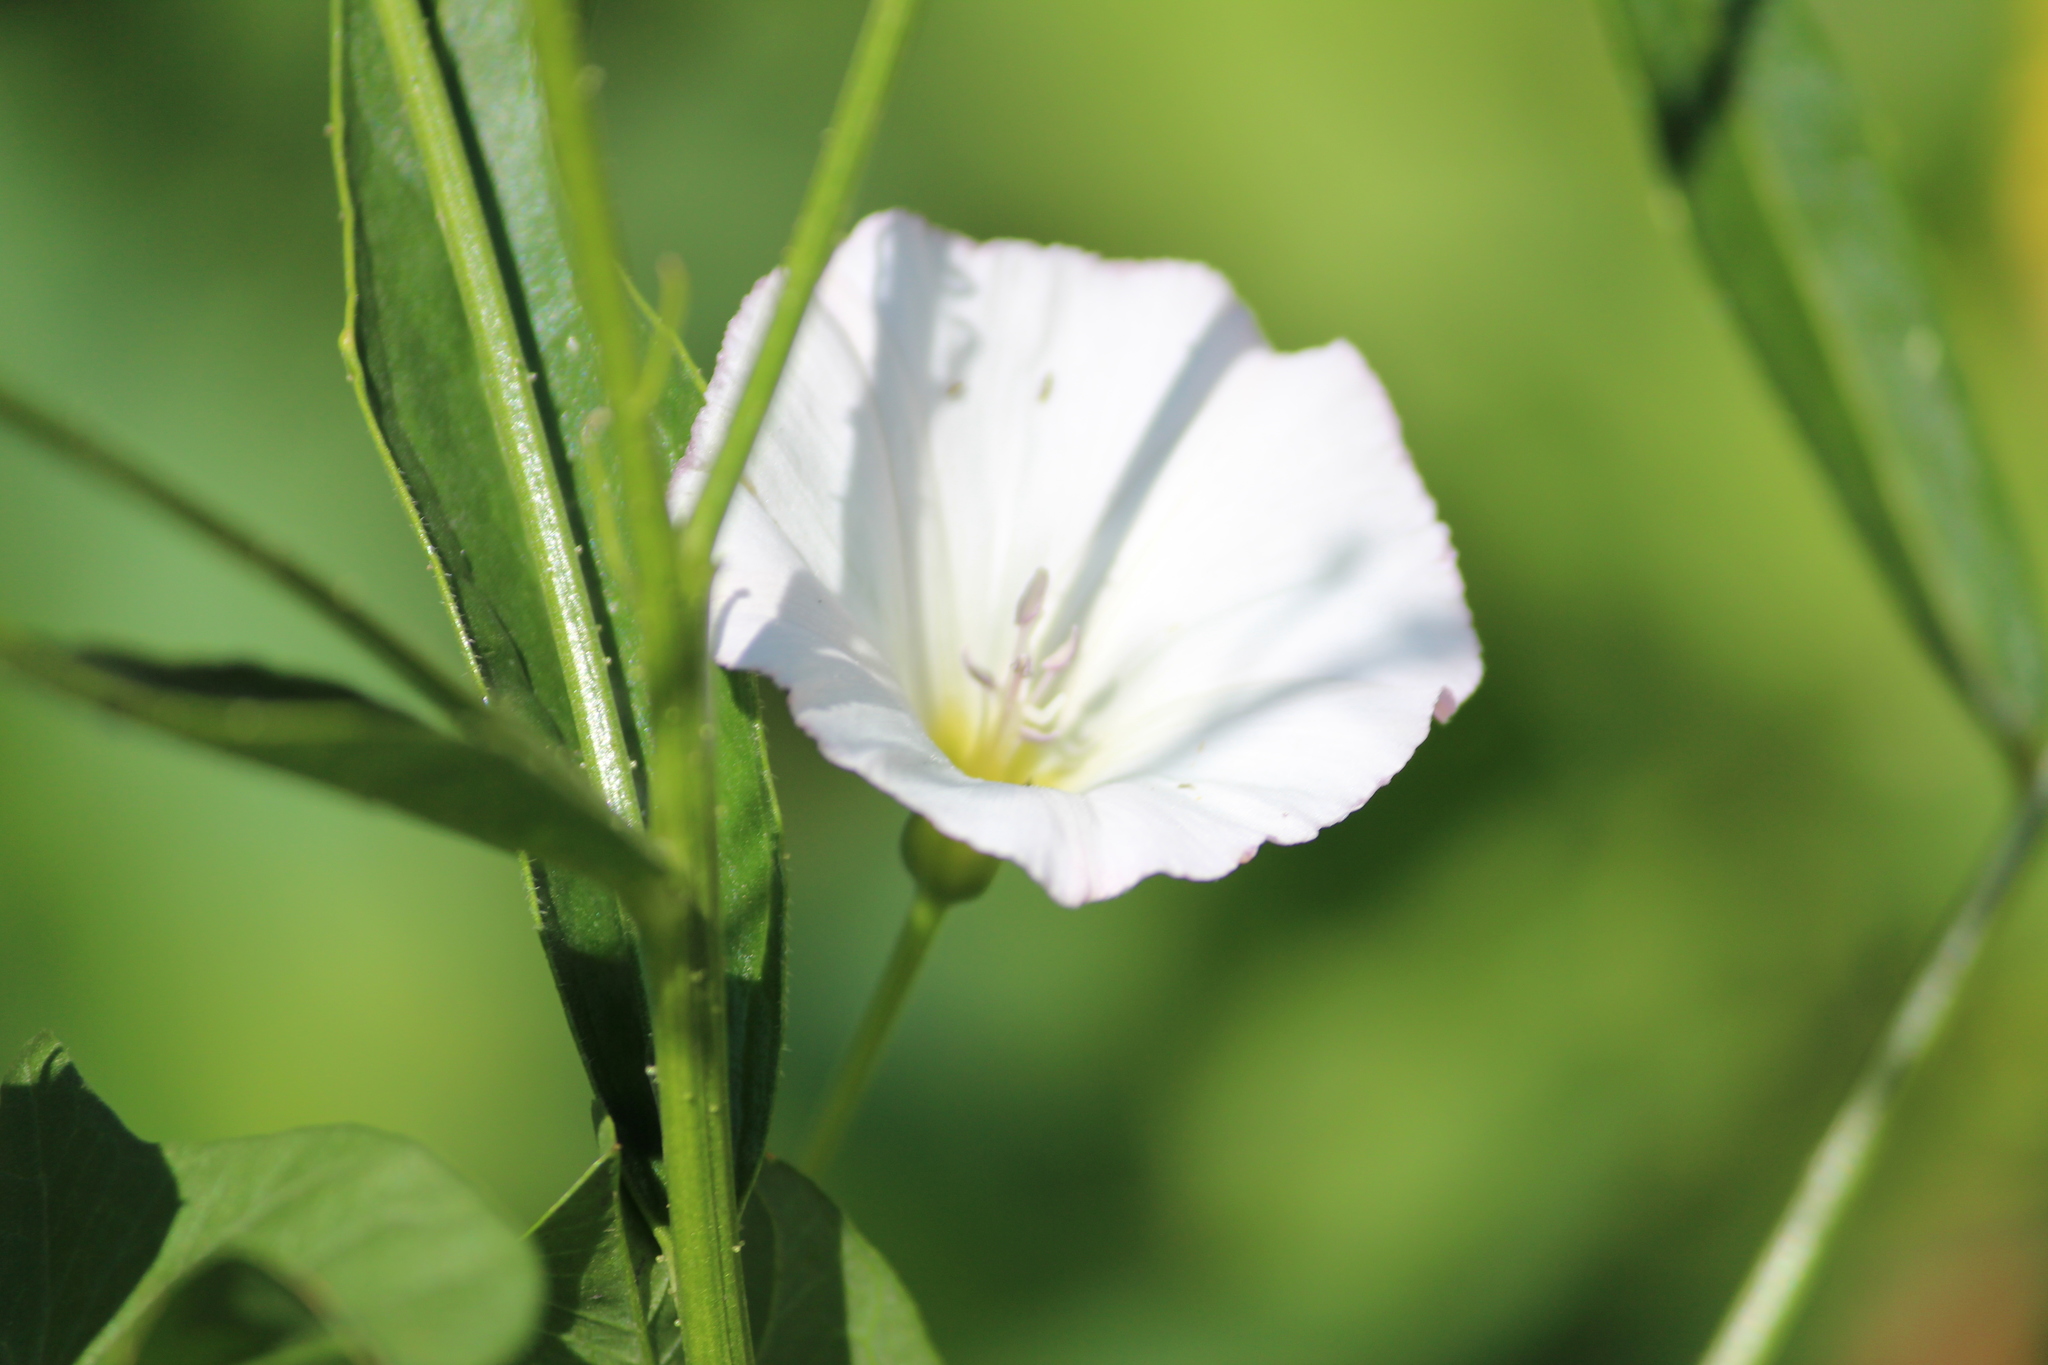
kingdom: Plantae
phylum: Tracheophyta
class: Magnoliopsida
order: Solanales
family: Convolvulaceae
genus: Convolvulus
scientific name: Convolvulus arvensis
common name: Field bindweed
